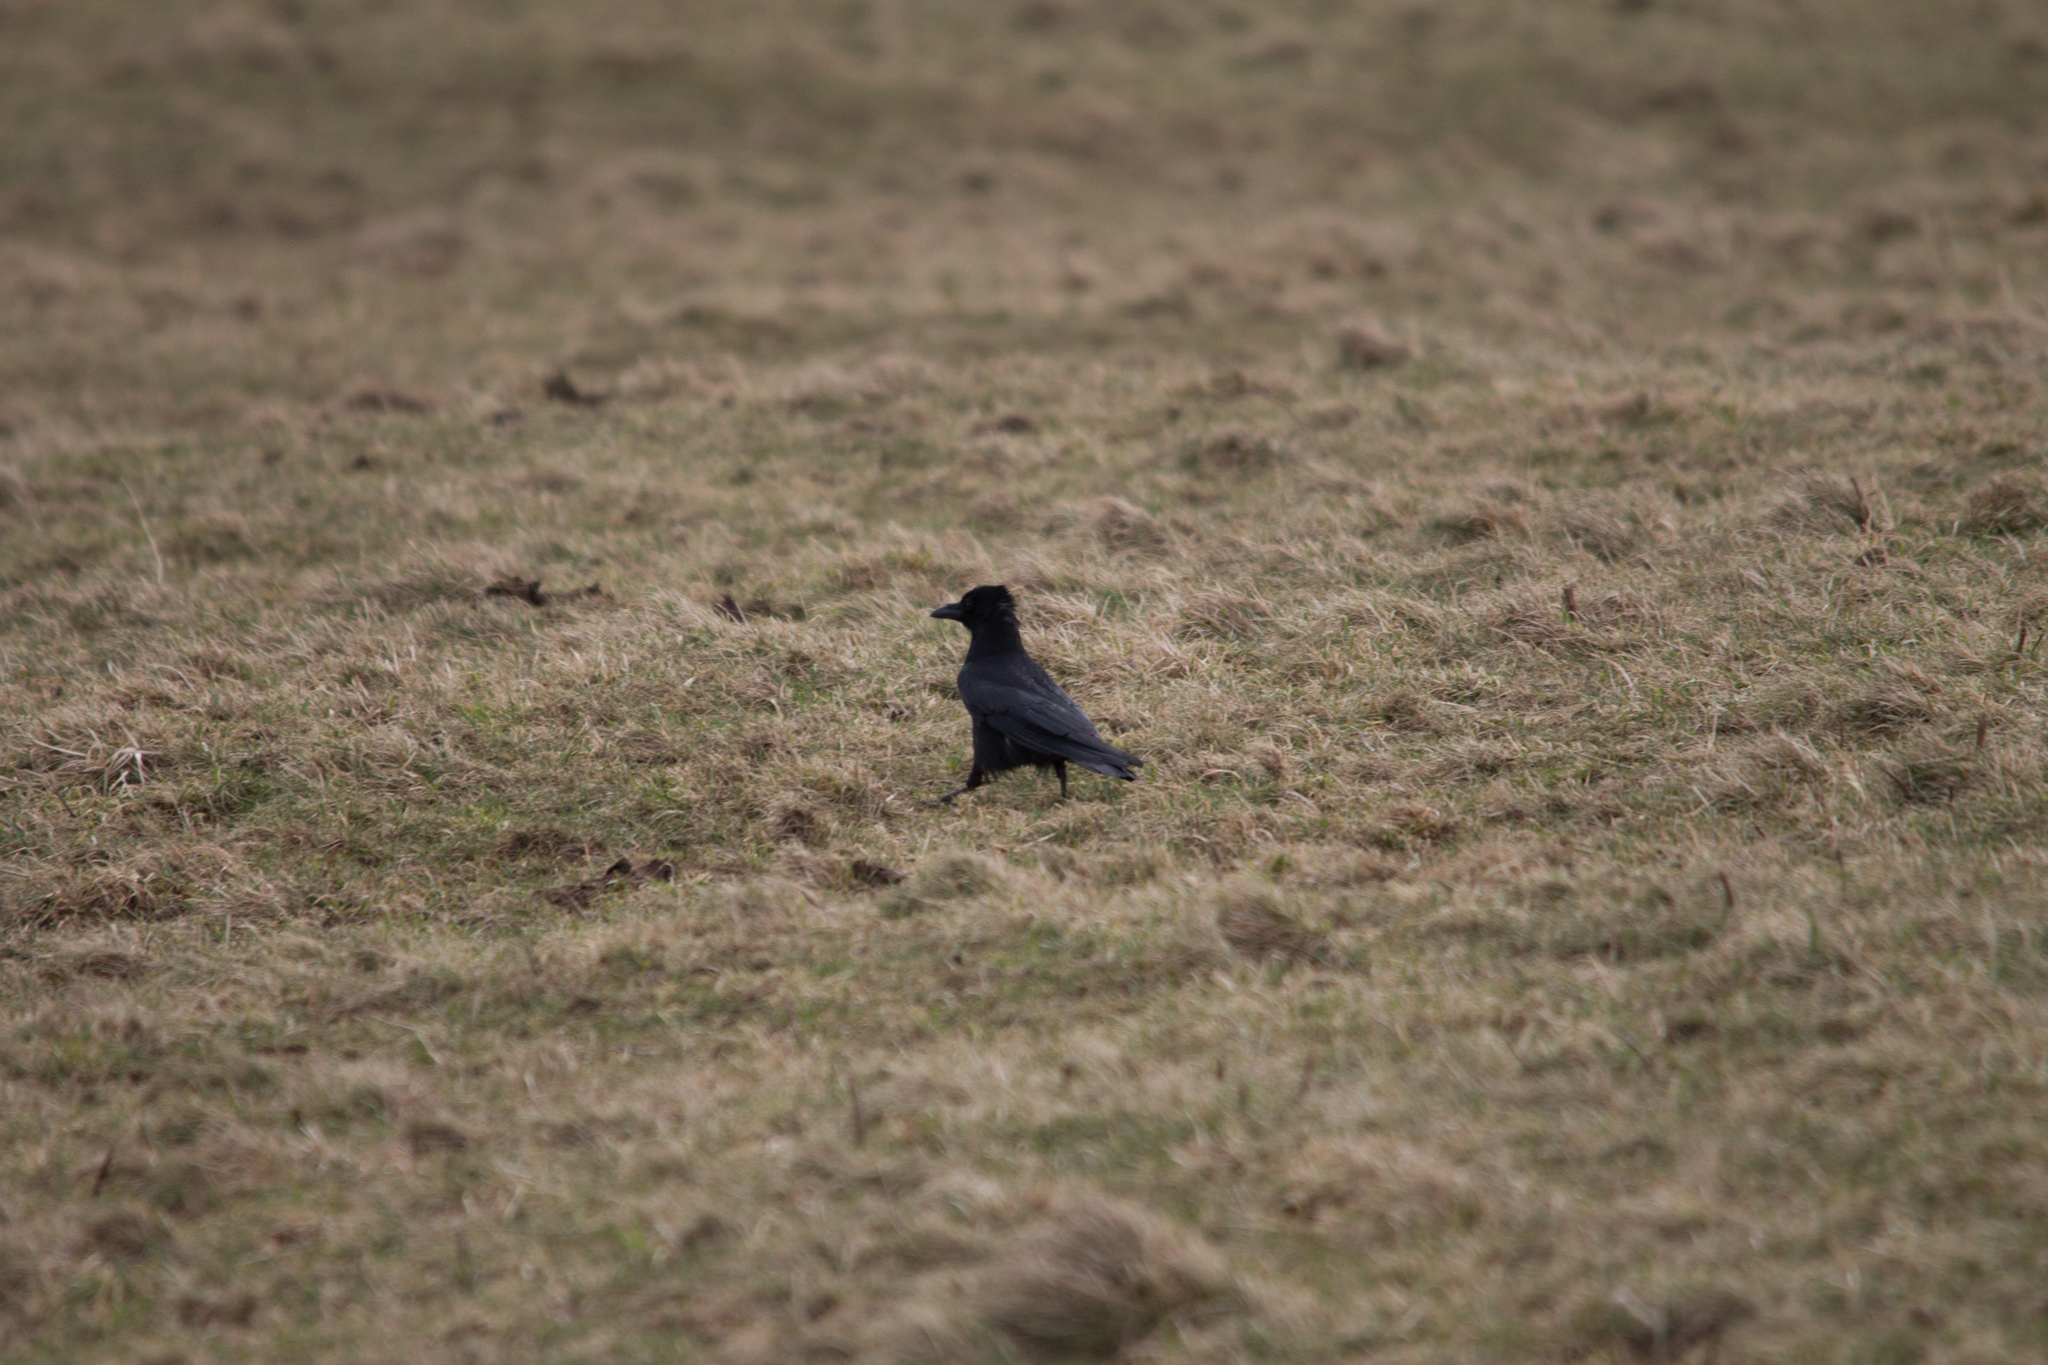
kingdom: Animalia
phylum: Chordata
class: Aves
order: Passeriformes
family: Corvidae
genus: Corvus
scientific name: Corvus corone
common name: Carrion crow
